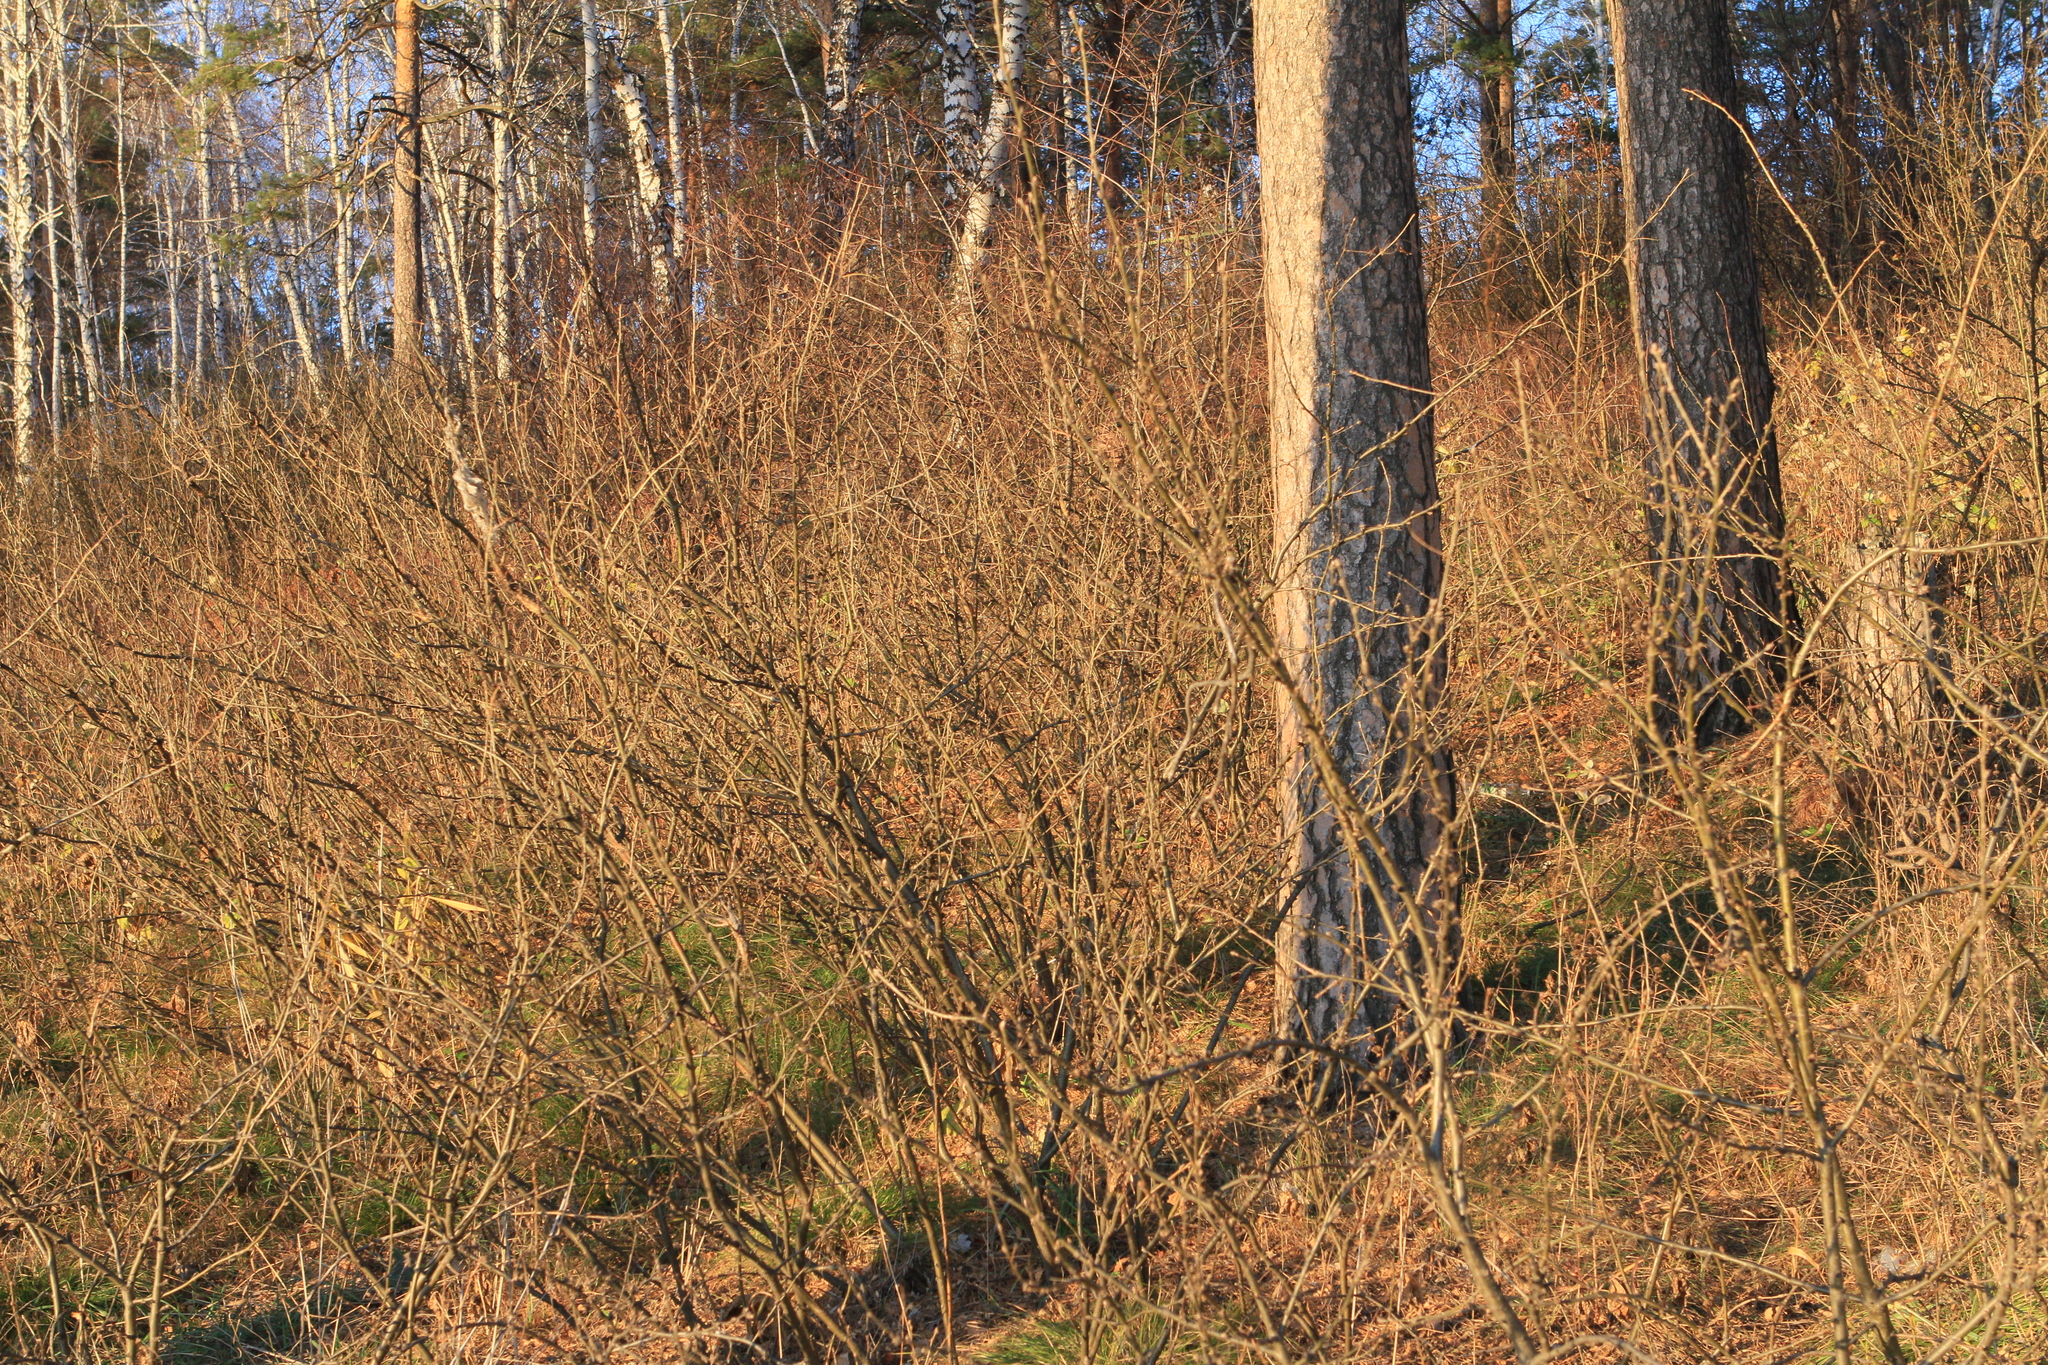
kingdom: Plantae
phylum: Tracheophyta
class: Magnoliopsida
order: Fabales
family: Fabaceae
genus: Caragana
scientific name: Caragana arborescens
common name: Siberian peashrub
